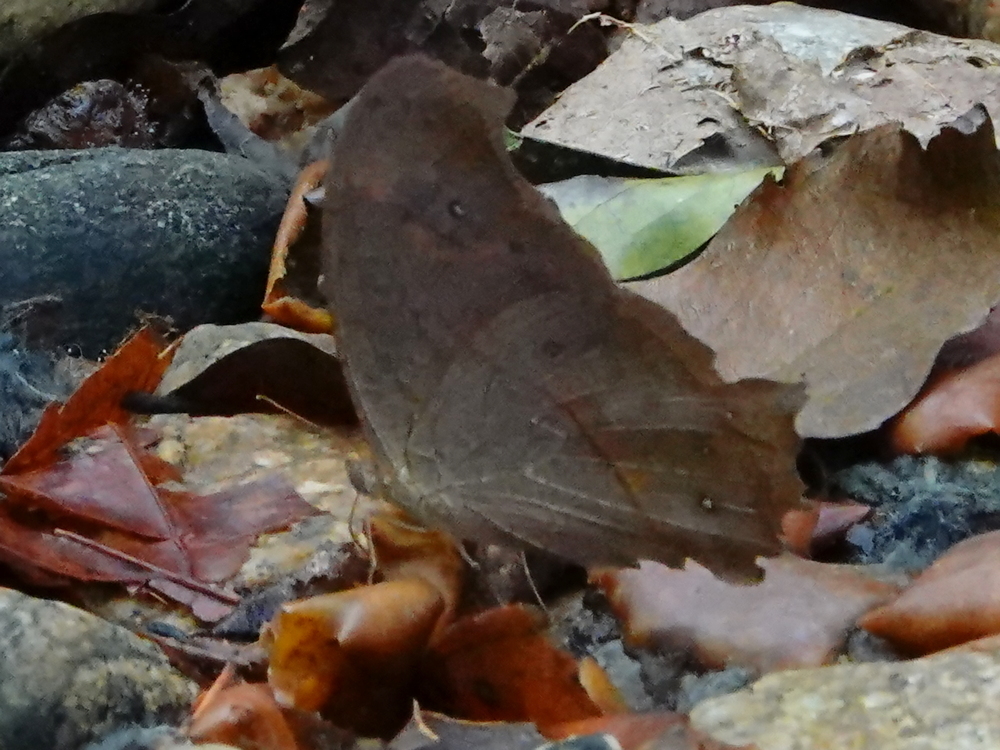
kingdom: Animalia
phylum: Arthropoda
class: Insecta
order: Lepidoptera
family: Nymphalidae
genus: Melanitis
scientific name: Melanitis leda
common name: Twilight brown
